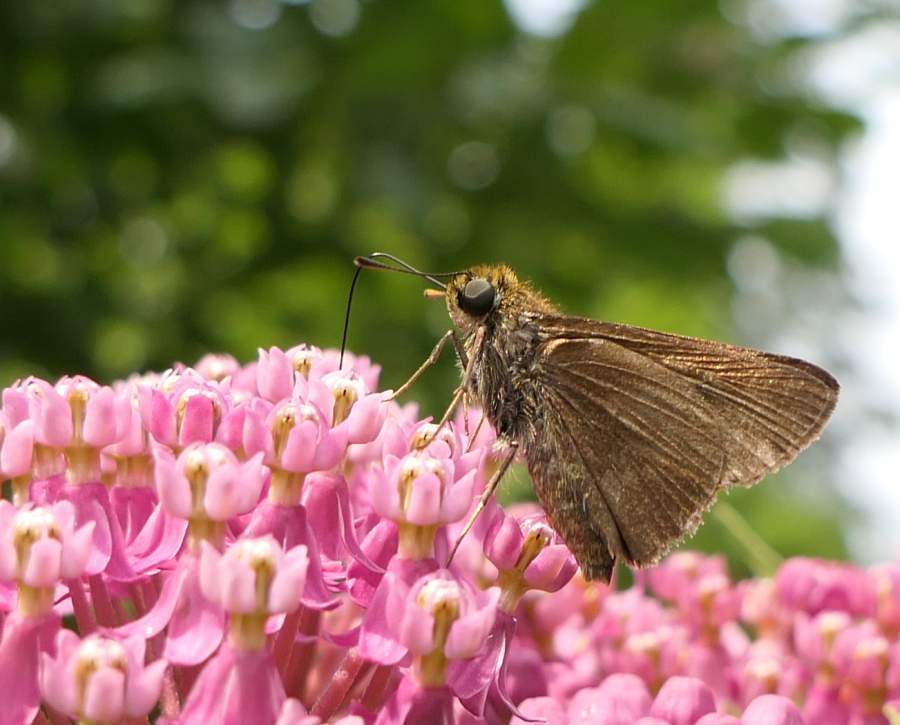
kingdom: Animalia
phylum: Arthropoda
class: Insecta
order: Lepidoptera
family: Hesperiidae
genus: Euphyes
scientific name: Euphyes vestris
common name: Dun skipper
